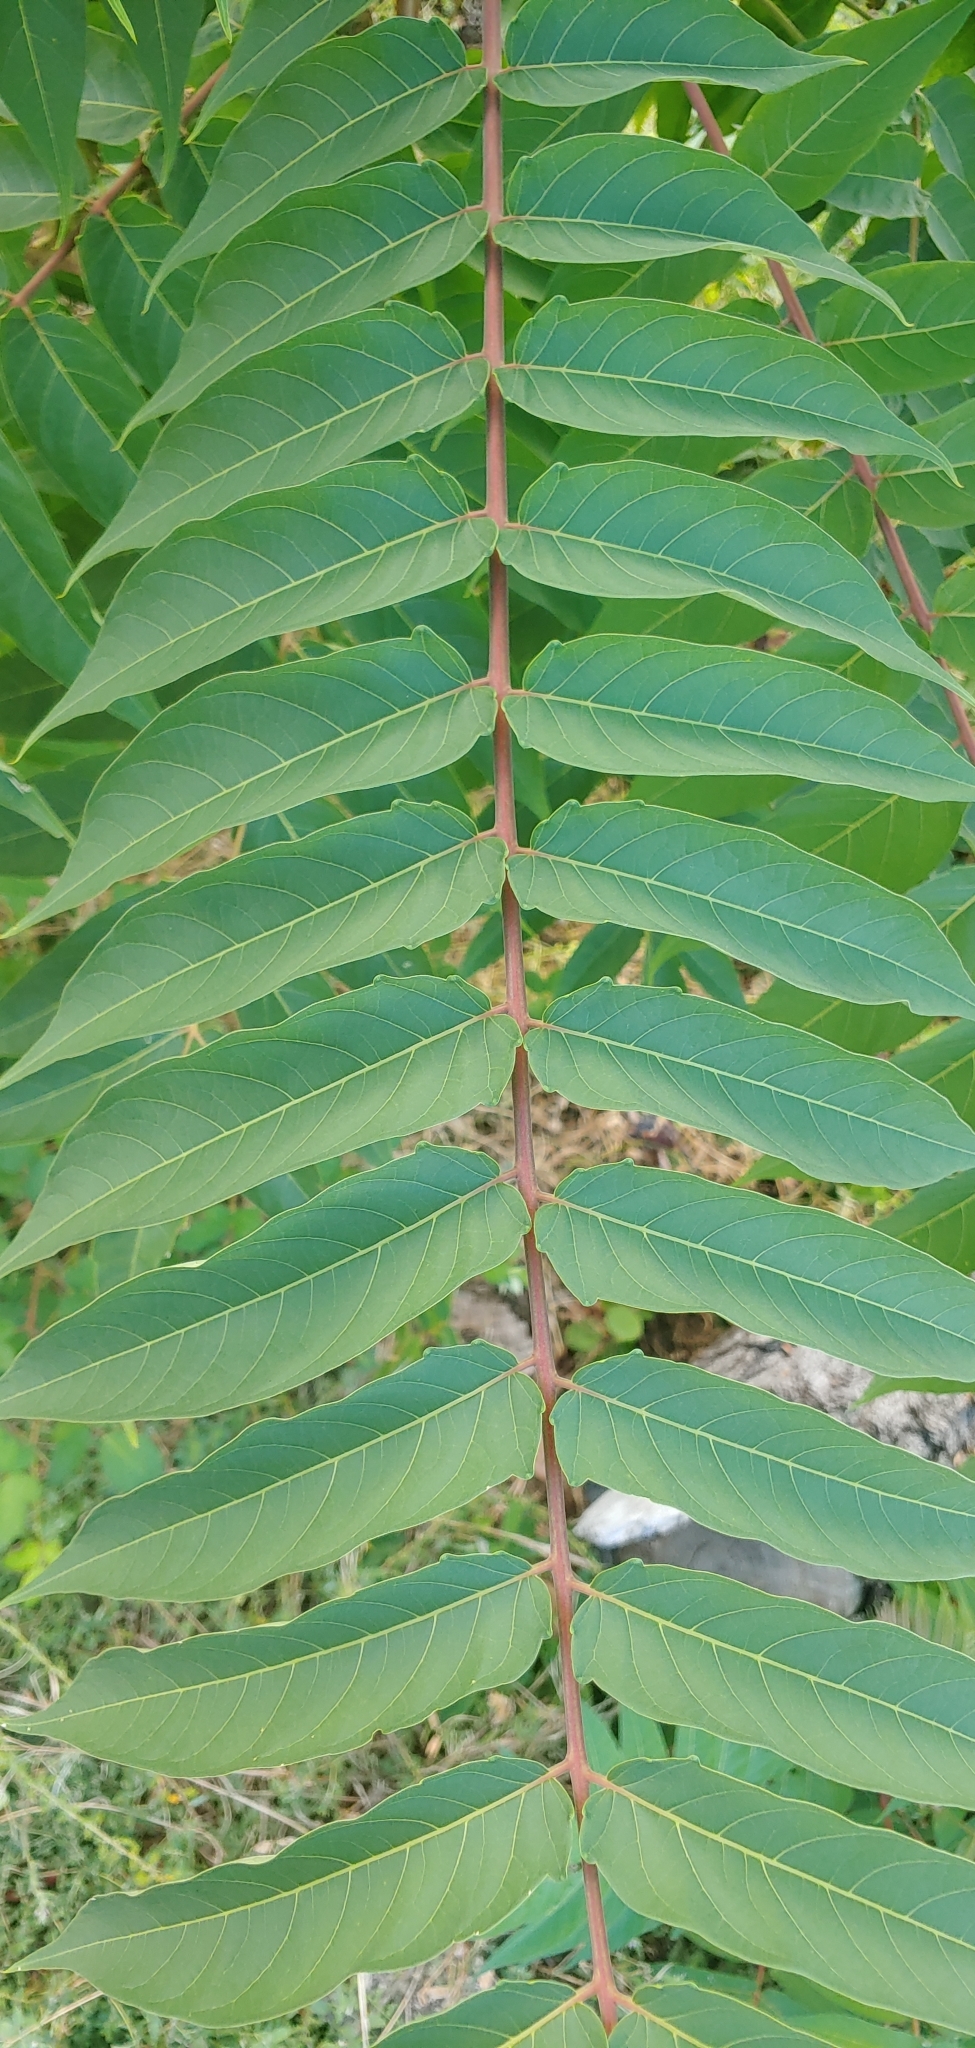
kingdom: Plantae
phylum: Tracheophyta
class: Magnoliopsida
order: Sapindales
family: Simaroubaceae
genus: Ailanthus
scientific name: Ailanthus altissima
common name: Tree-of-heaven
